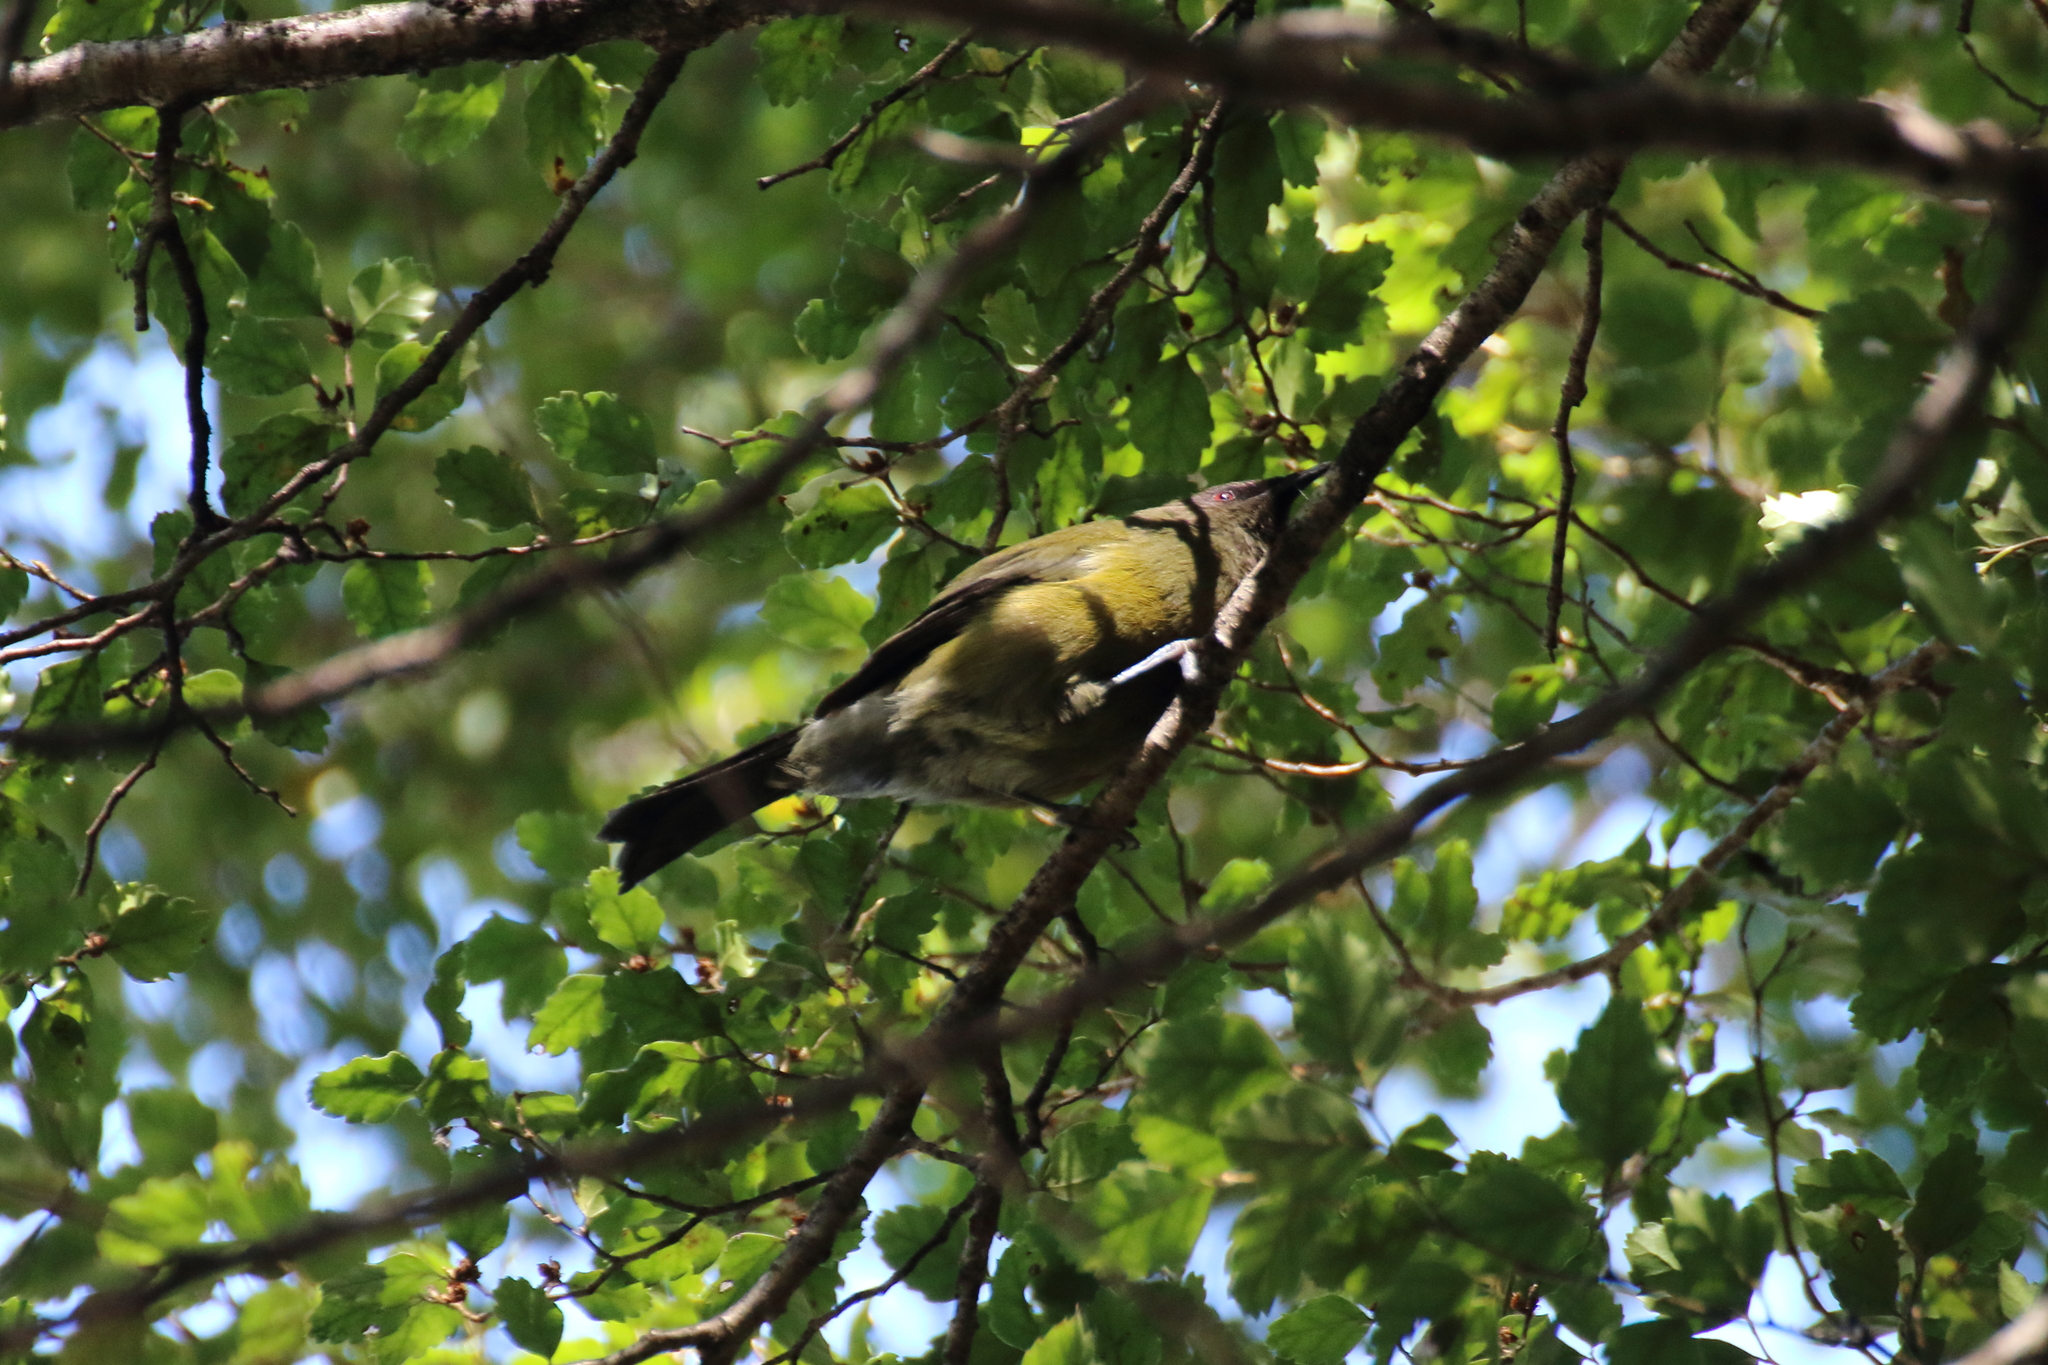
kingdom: Animalia
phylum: Chordata
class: Aves
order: Passeriformes
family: Meliphagidae
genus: Anthornis
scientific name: Anthornis melanura
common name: New zealand bellbird
